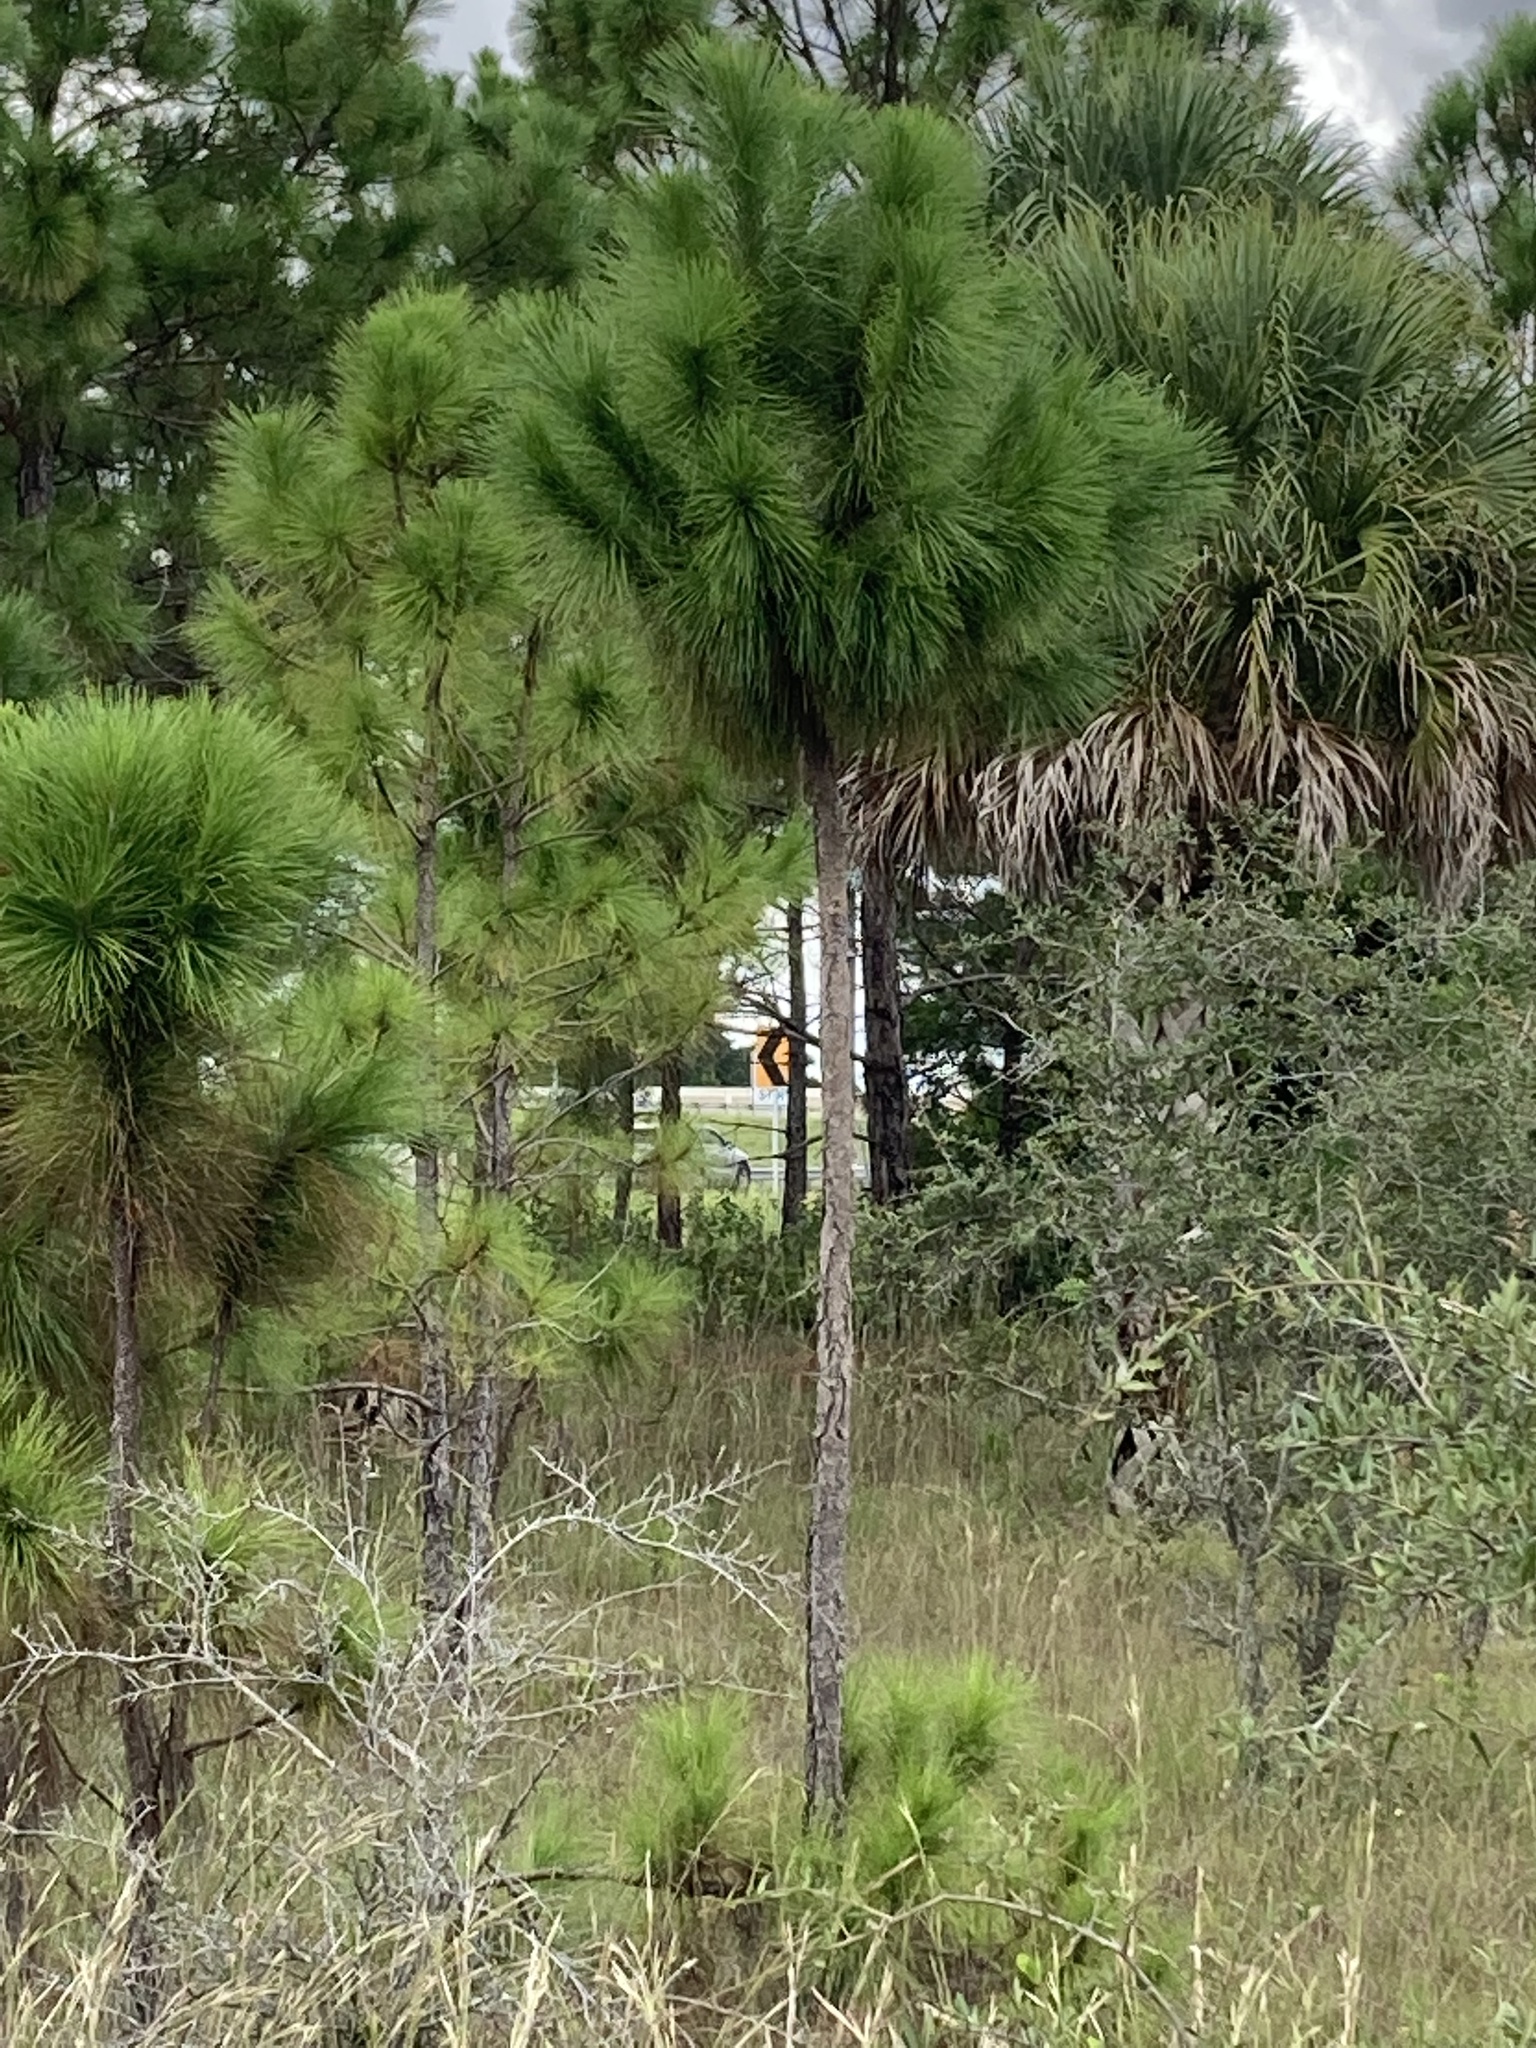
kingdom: Plantae
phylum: Tracheophyta
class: Pinopsida
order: Pinales
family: Pinaceae
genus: Pinus
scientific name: Pinus elliottii
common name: Slash pine
